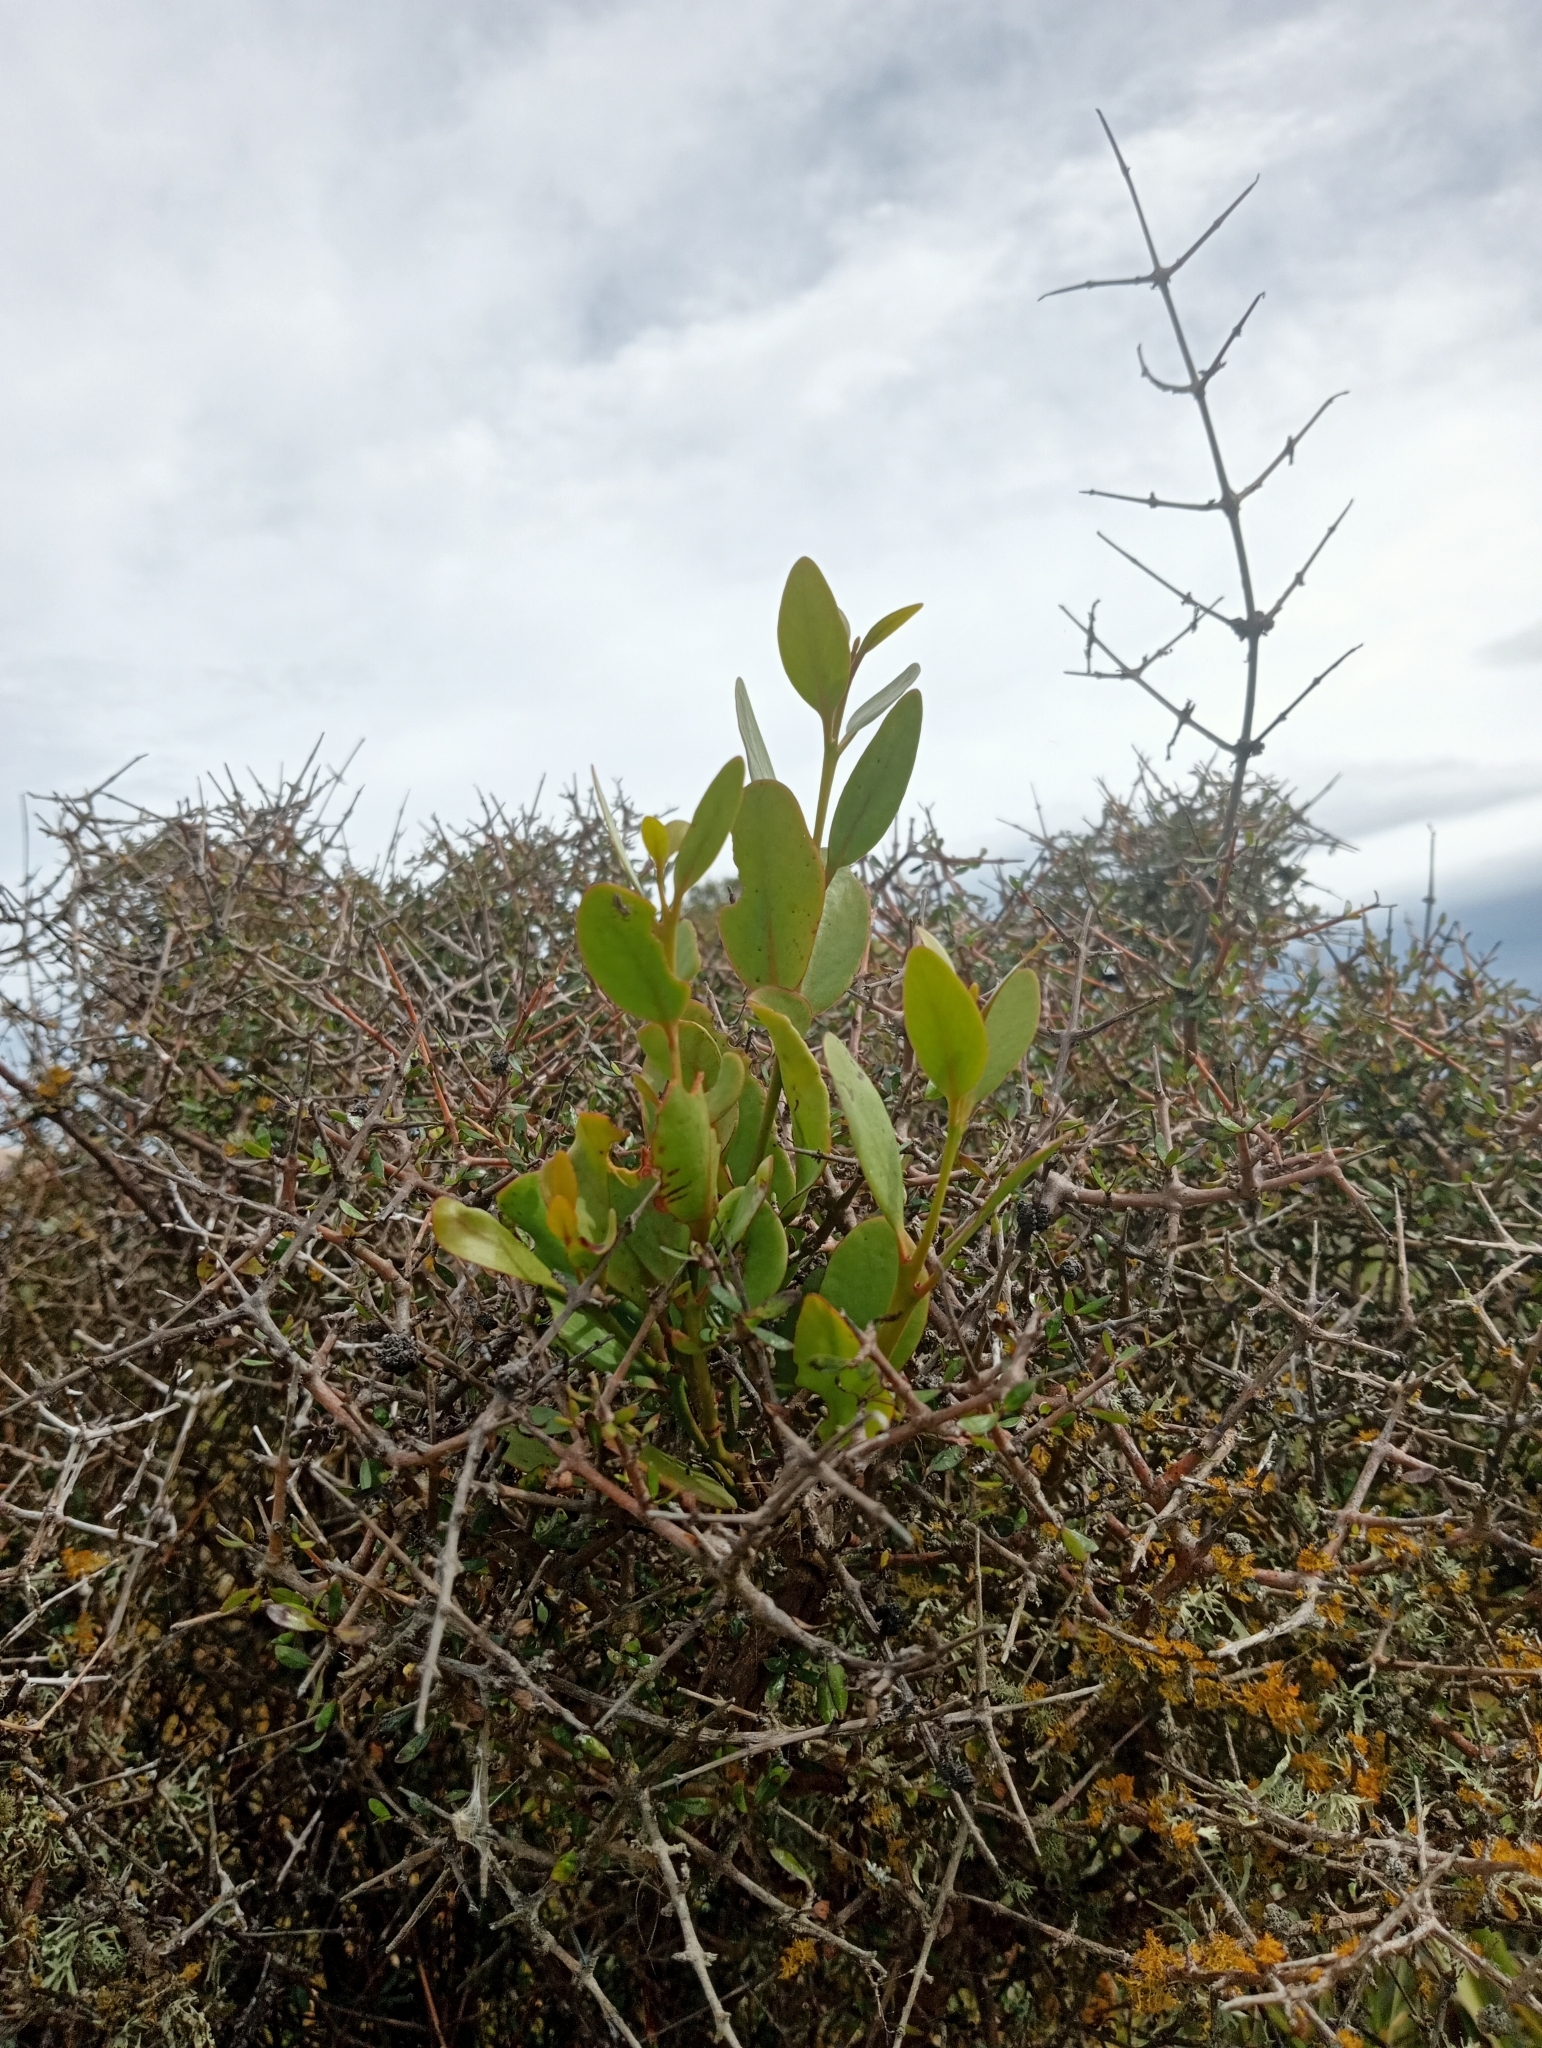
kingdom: Plantae
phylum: Tracheophyta
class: Magnoliopsida
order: Santalales
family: Loranthaceae
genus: Ileostylus
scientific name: Ileostylus micranthus
